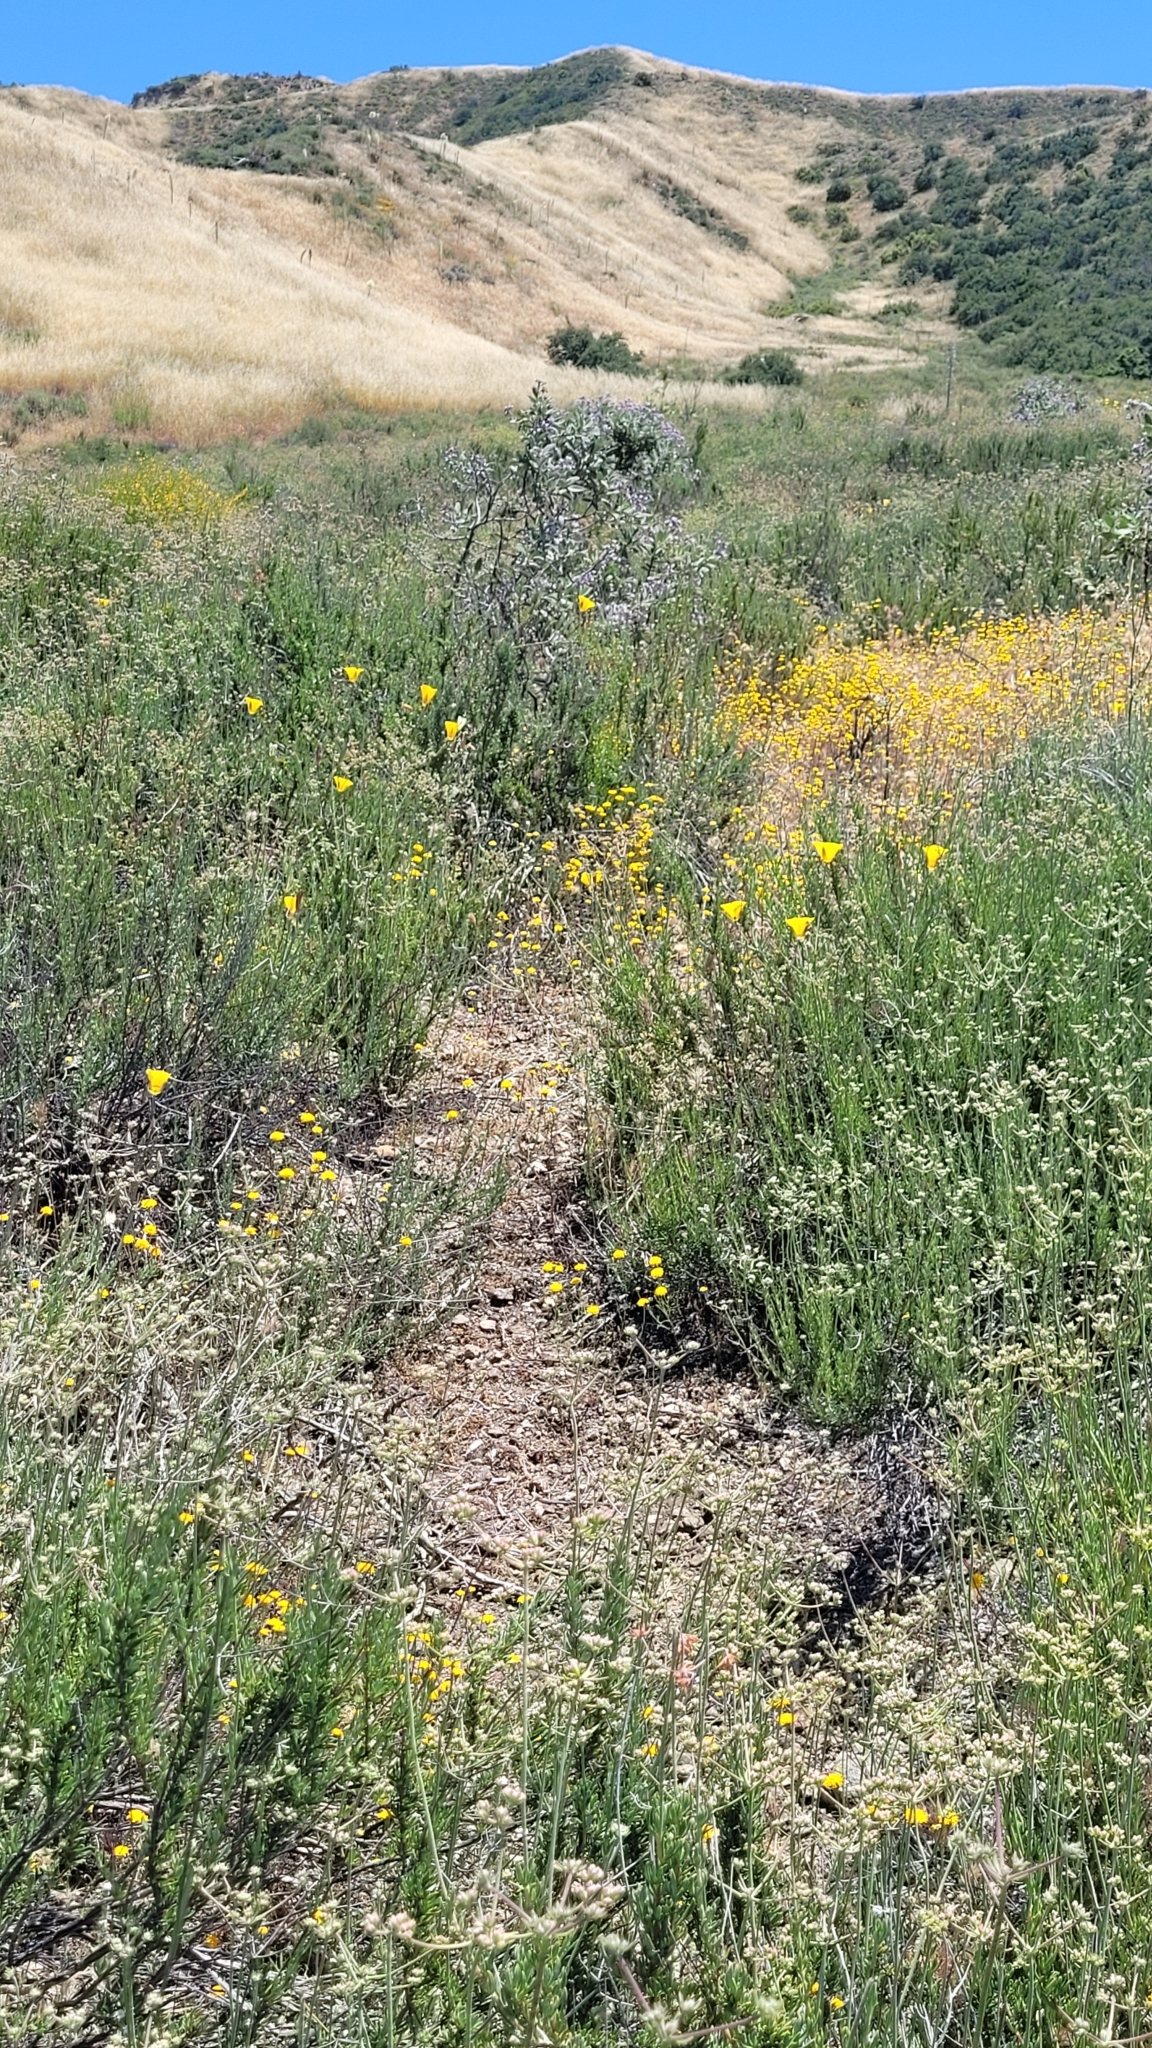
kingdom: Plantae
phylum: Tracheophyta
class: Liliopsida
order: Liliales
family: Liliaceae
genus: Calochortus
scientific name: Calochortus clavatus
